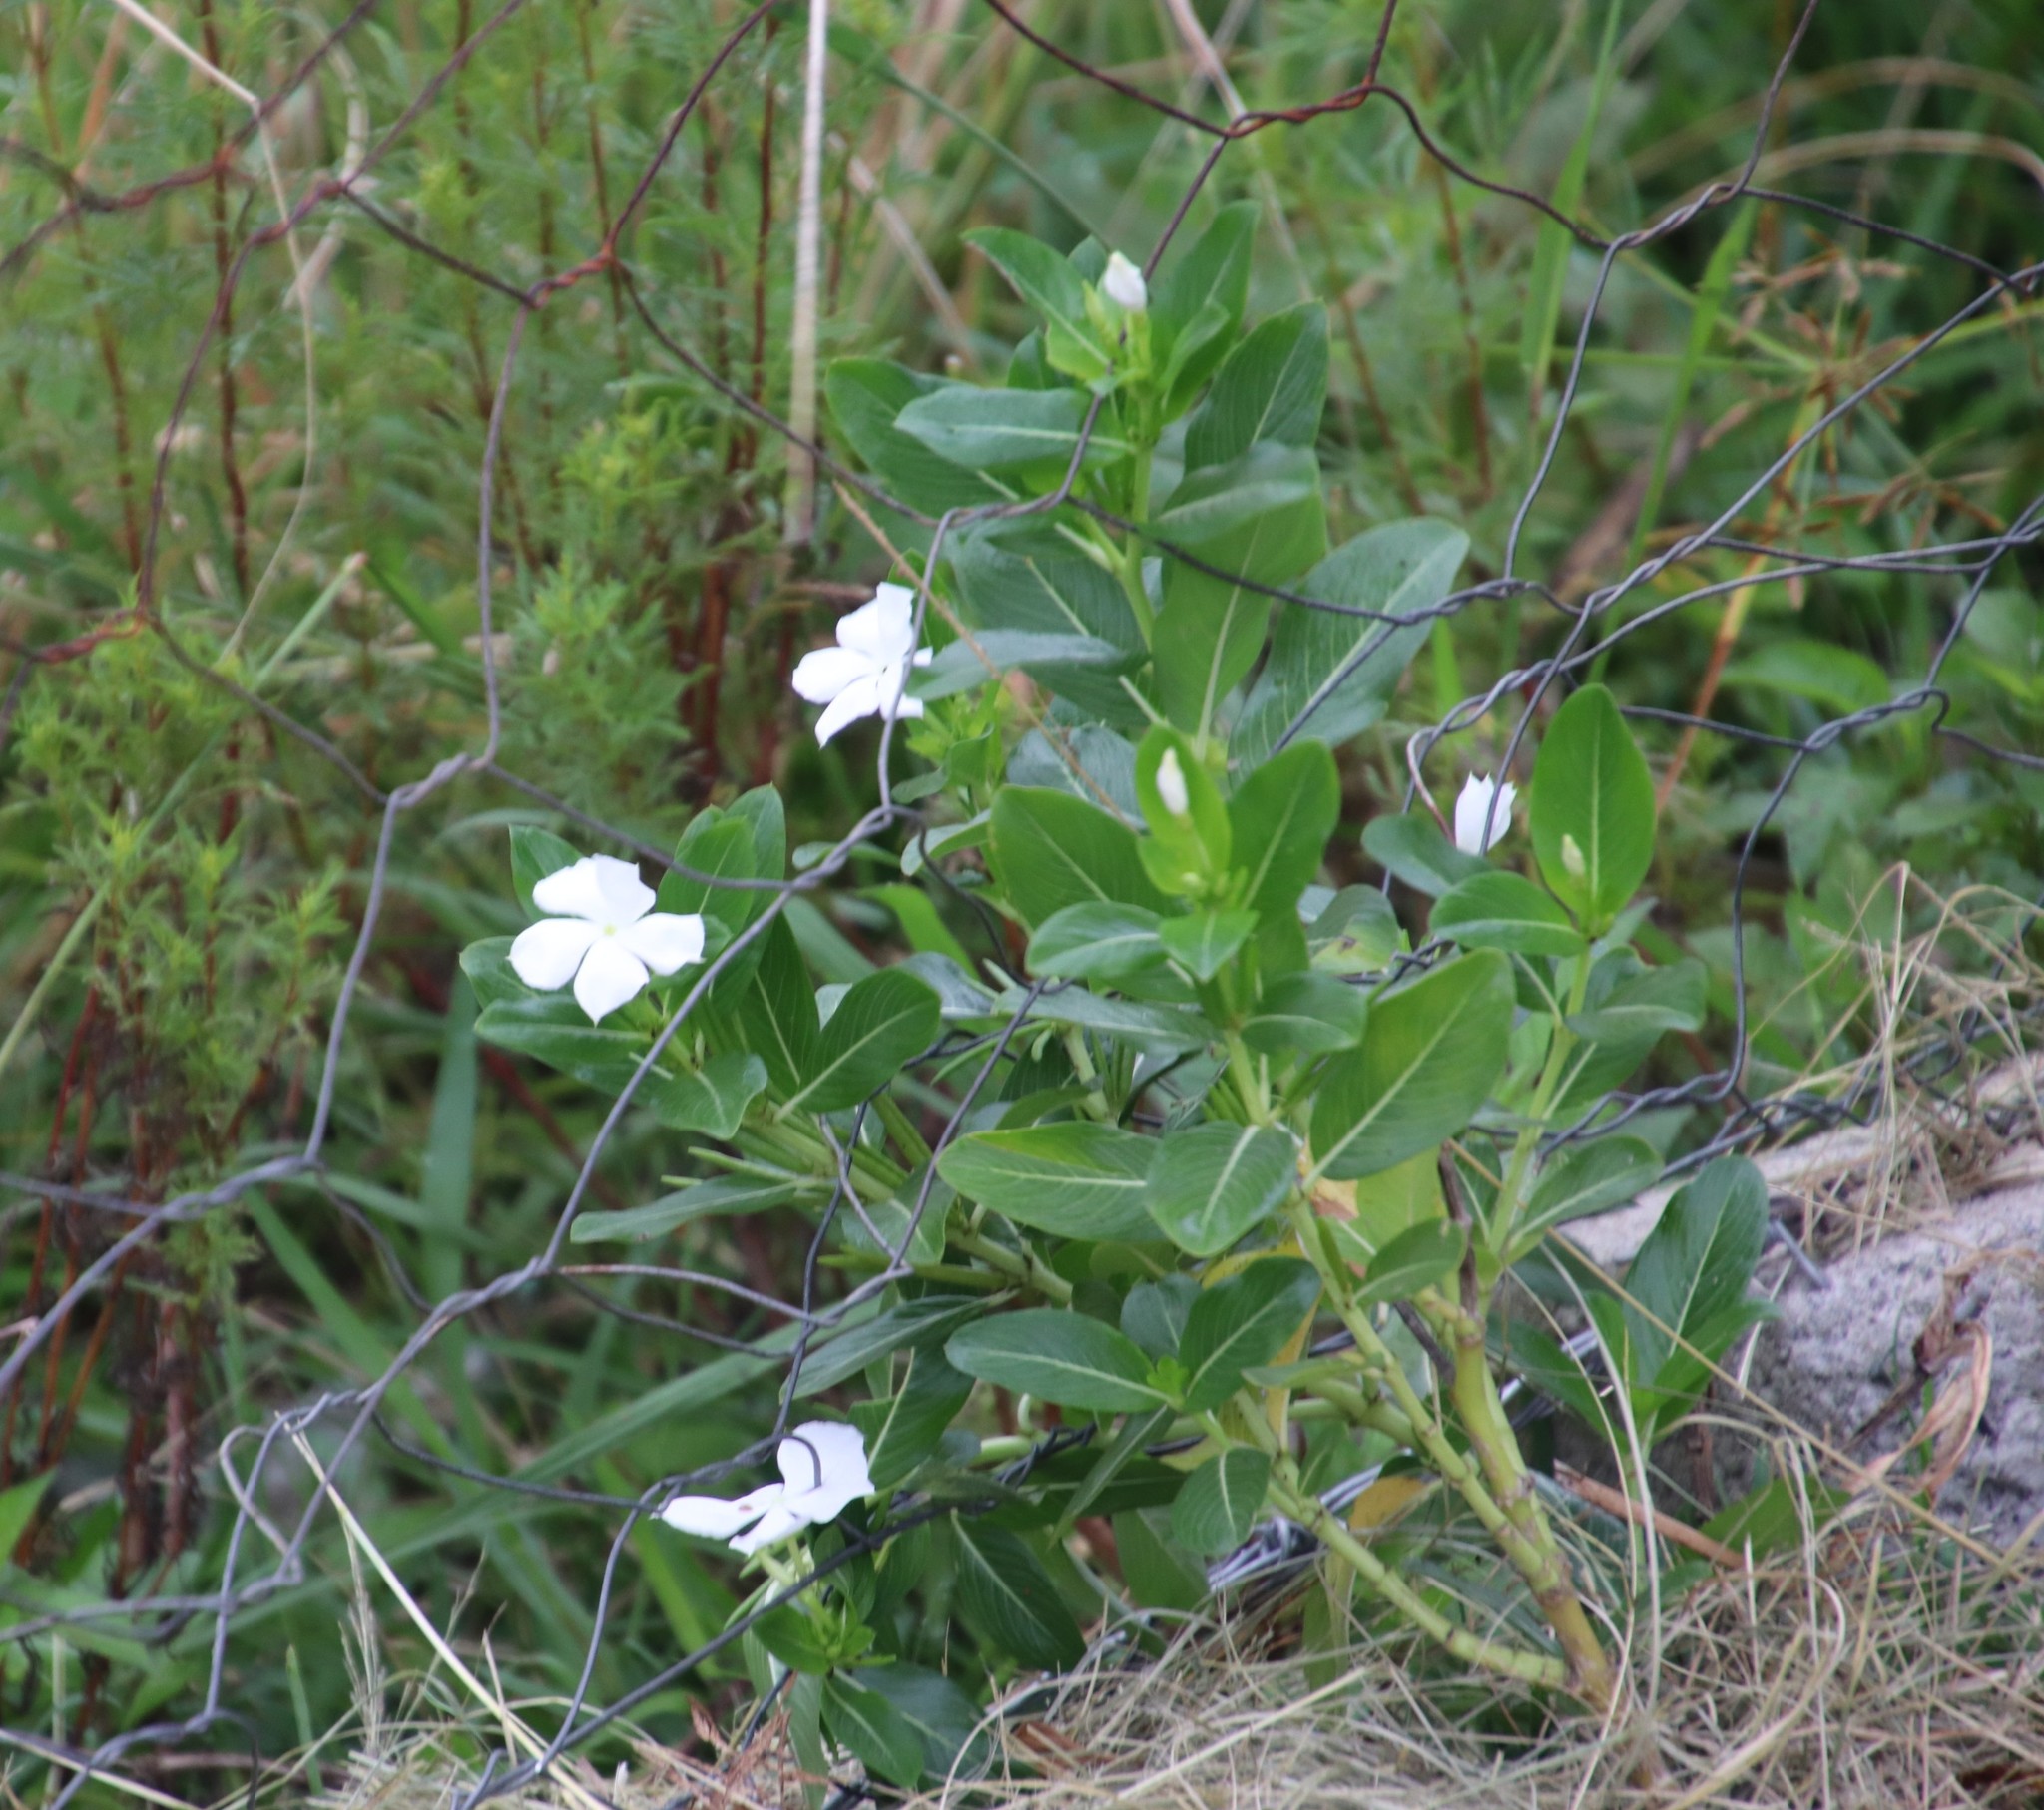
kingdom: Plantae
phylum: Tracheophyta
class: Magnoliopsida
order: Gentianales
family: Apocynaceae
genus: Catharanthus
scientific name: Catharanthus roseus
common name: Madagascar periwinkle
